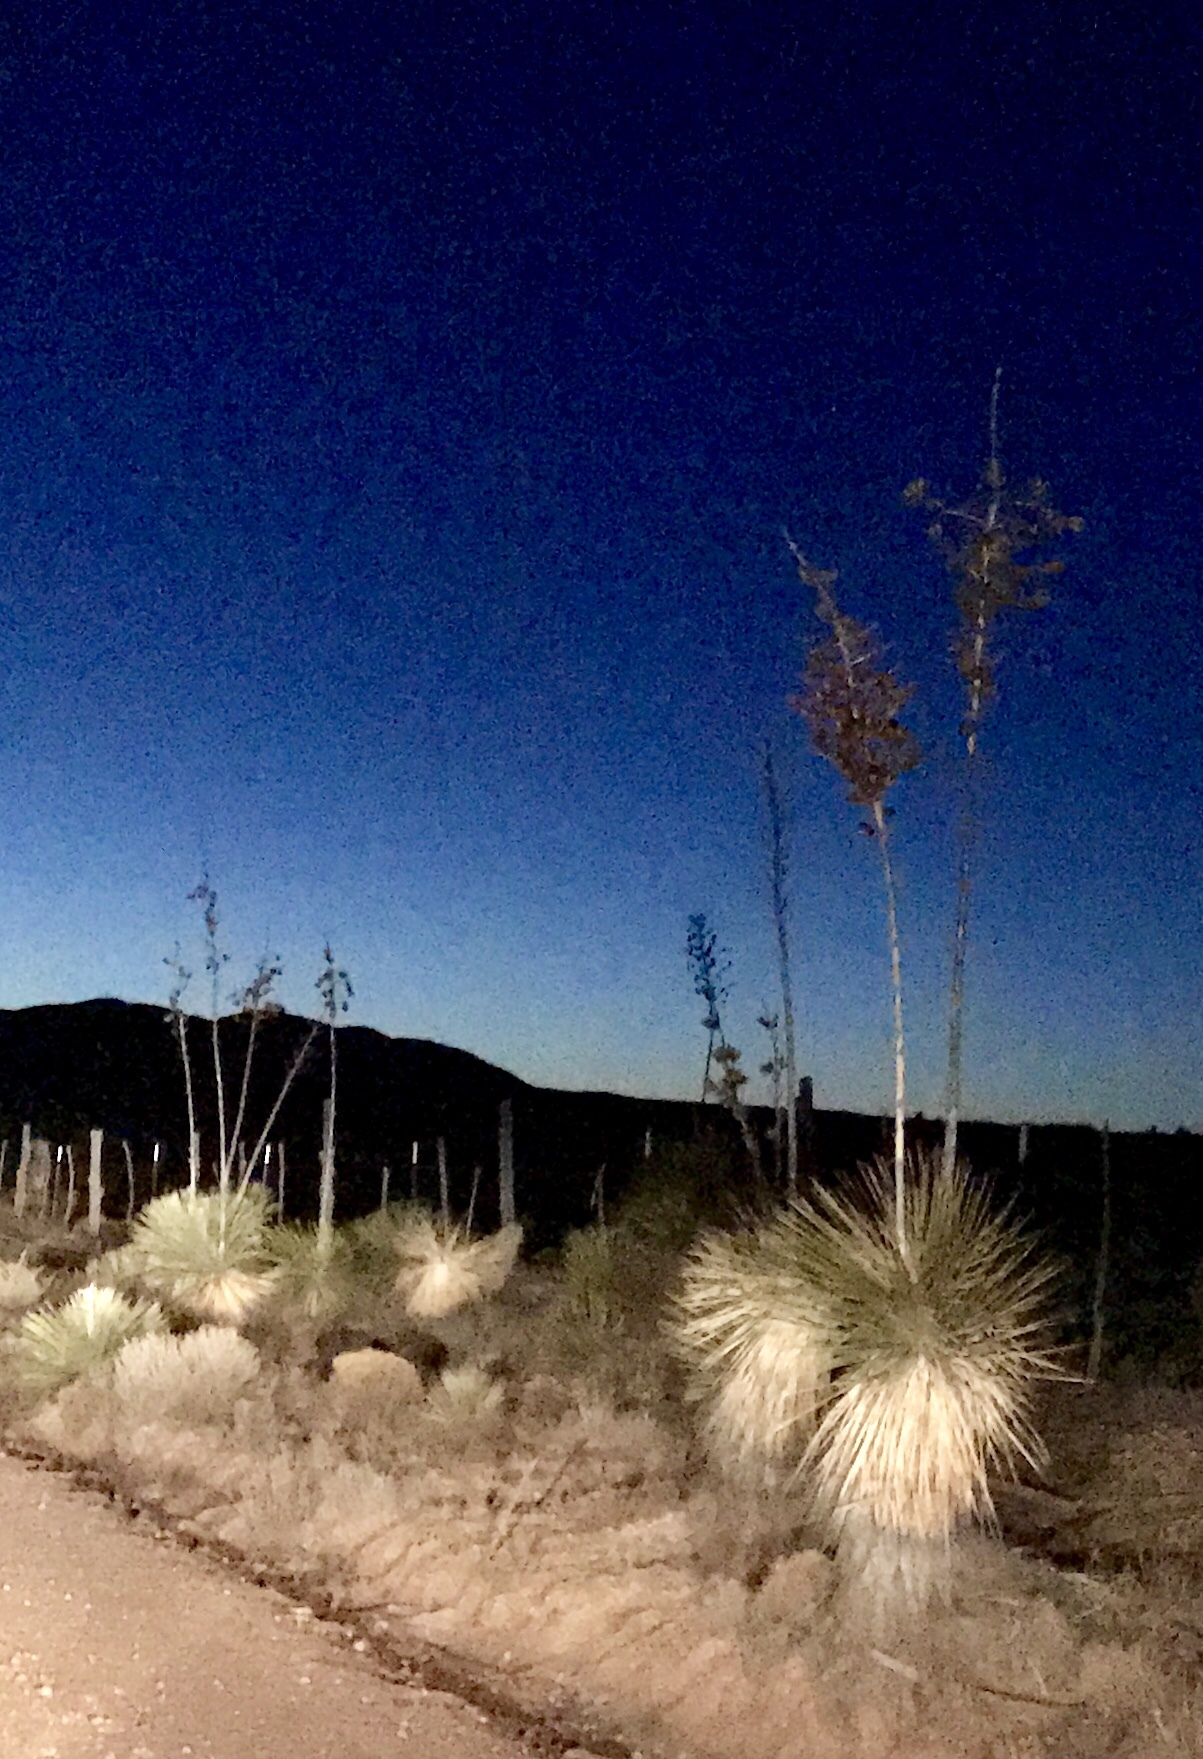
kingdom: Plantae
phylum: Tracheophyta
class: Liliopsida
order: Asparagales
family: Asparagaceae
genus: Yucca
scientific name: Yucca elata
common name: Palmella
